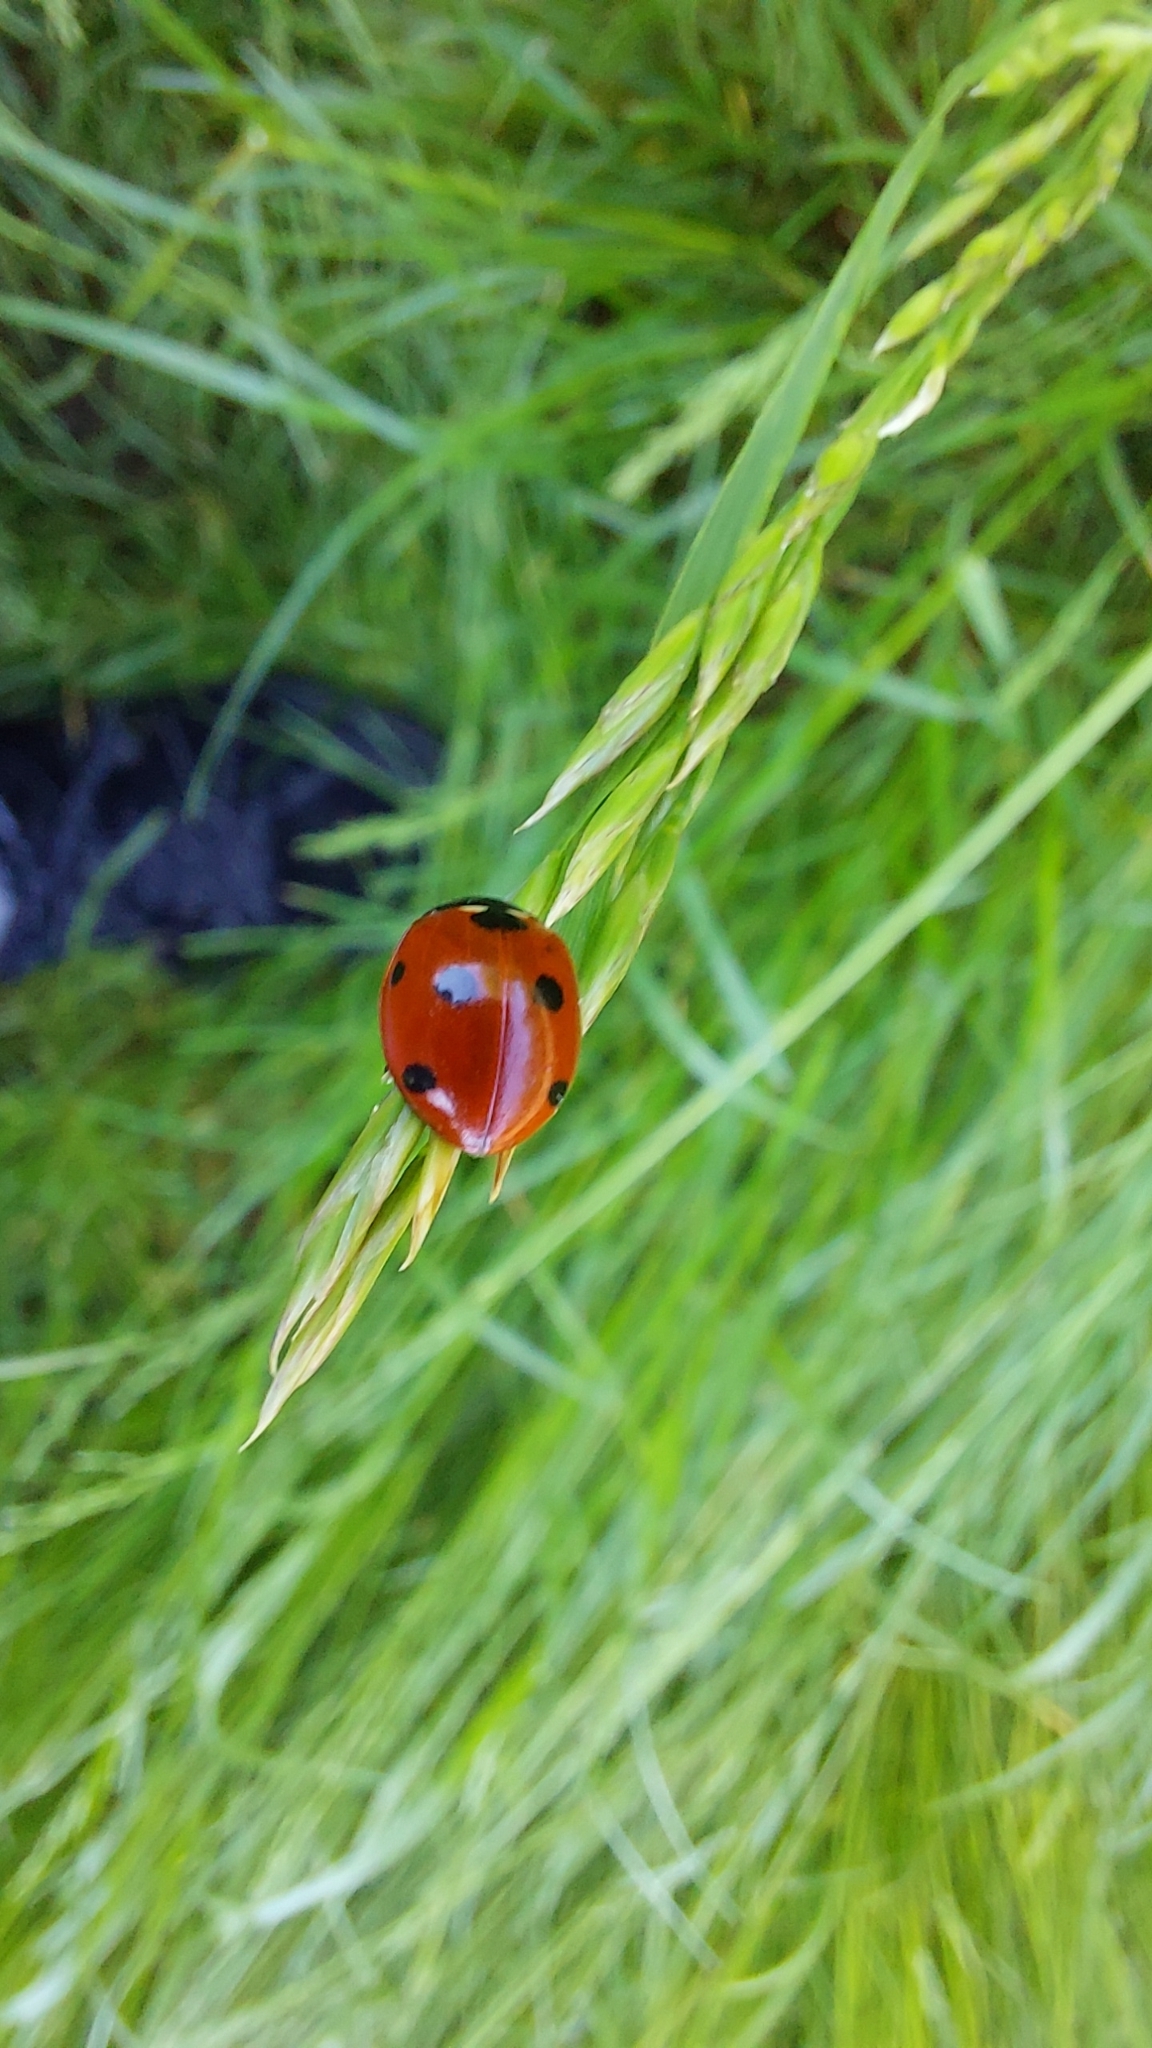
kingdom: Animalia
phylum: Arthropoda
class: Insecta
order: Coleoptera
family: Coccinellidae
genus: Coccinella
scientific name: Coccinella septempunctata
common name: Sevenspotted lady beetle
